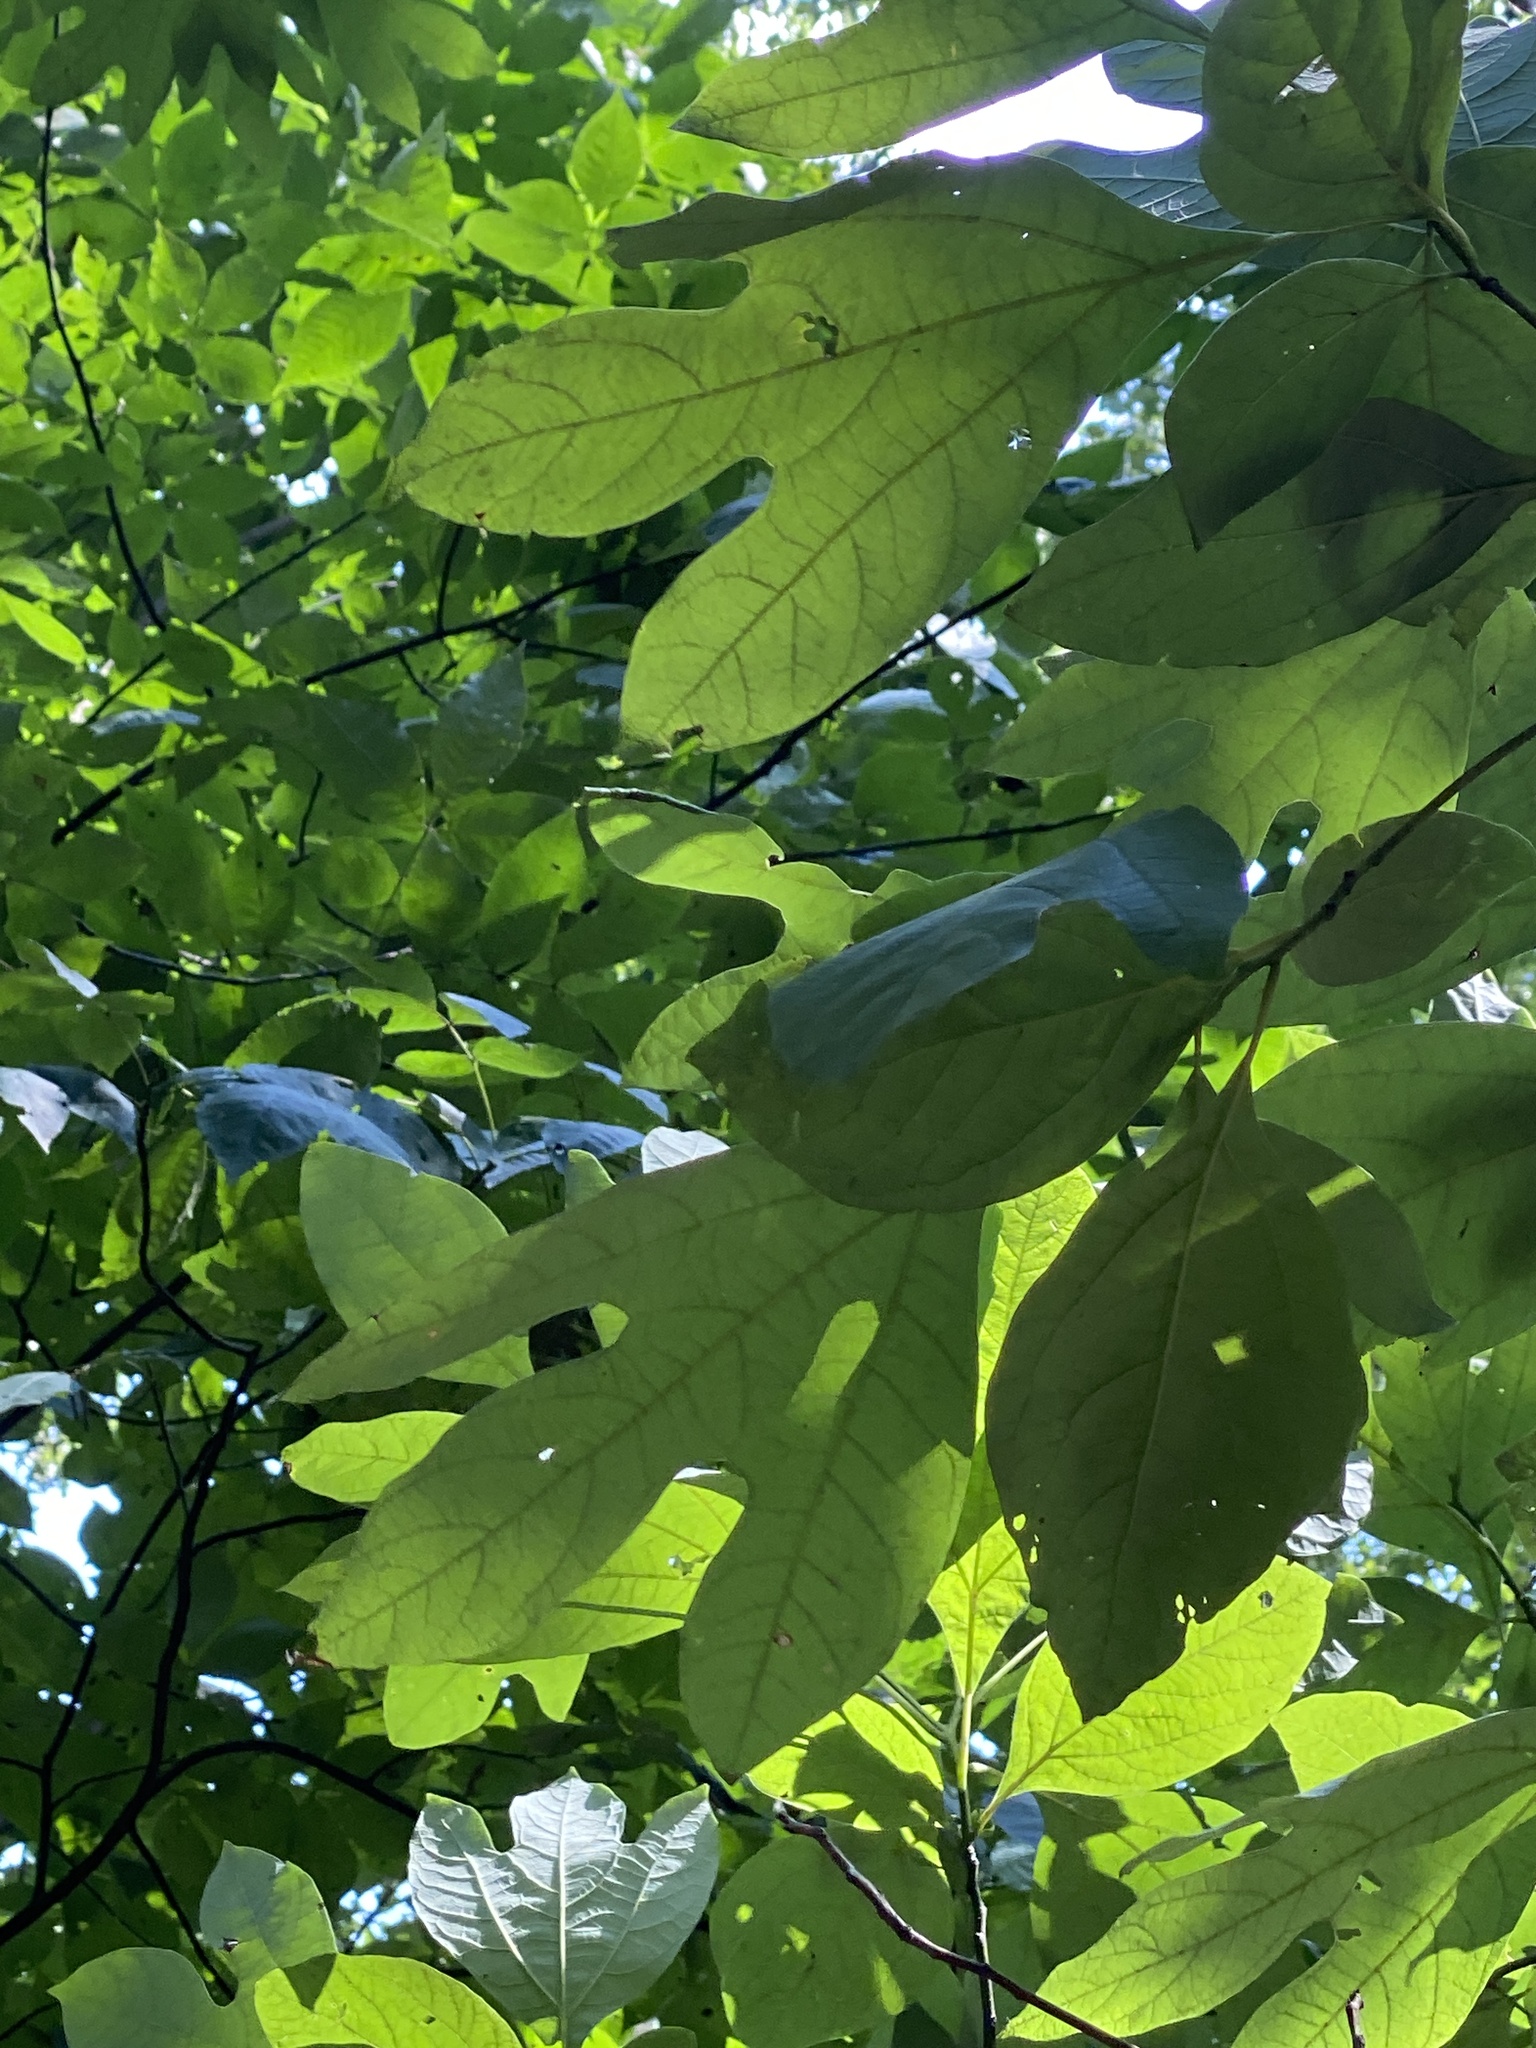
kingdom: Plantae
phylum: Tracheophyta
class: Magnoliopsida
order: Laurales
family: Lauraceae
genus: Sassafras
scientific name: Sassafras albidum
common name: Sassafras
